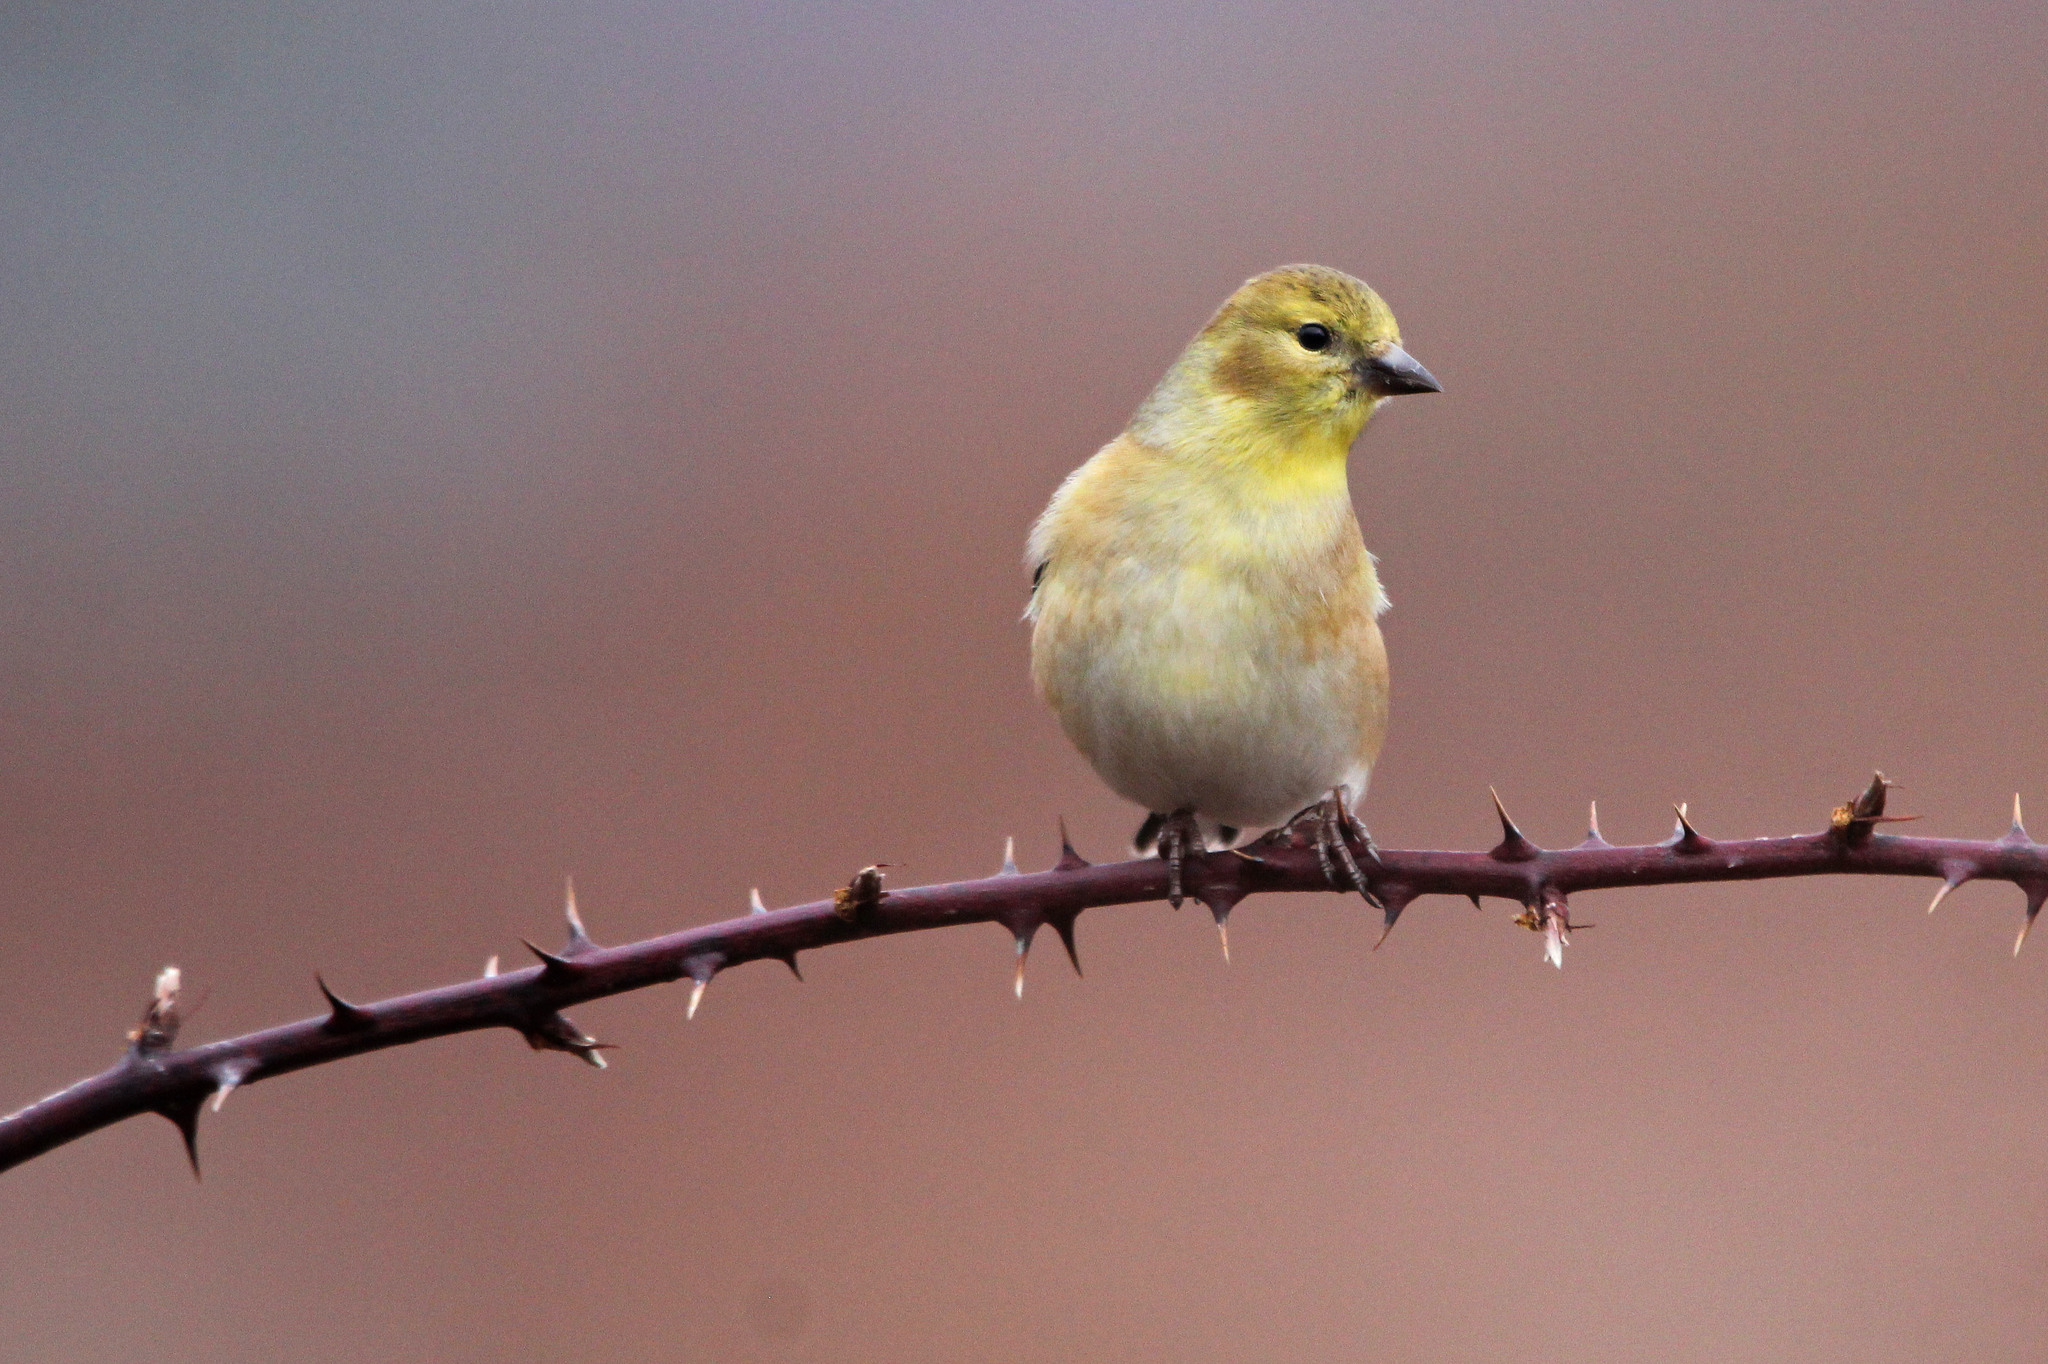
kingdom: Animalia
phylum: Chordata
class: Aves
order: Passeriformes
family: Fringillidae
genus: Spinus
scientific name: Spinus tristis
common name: American goldfinch
